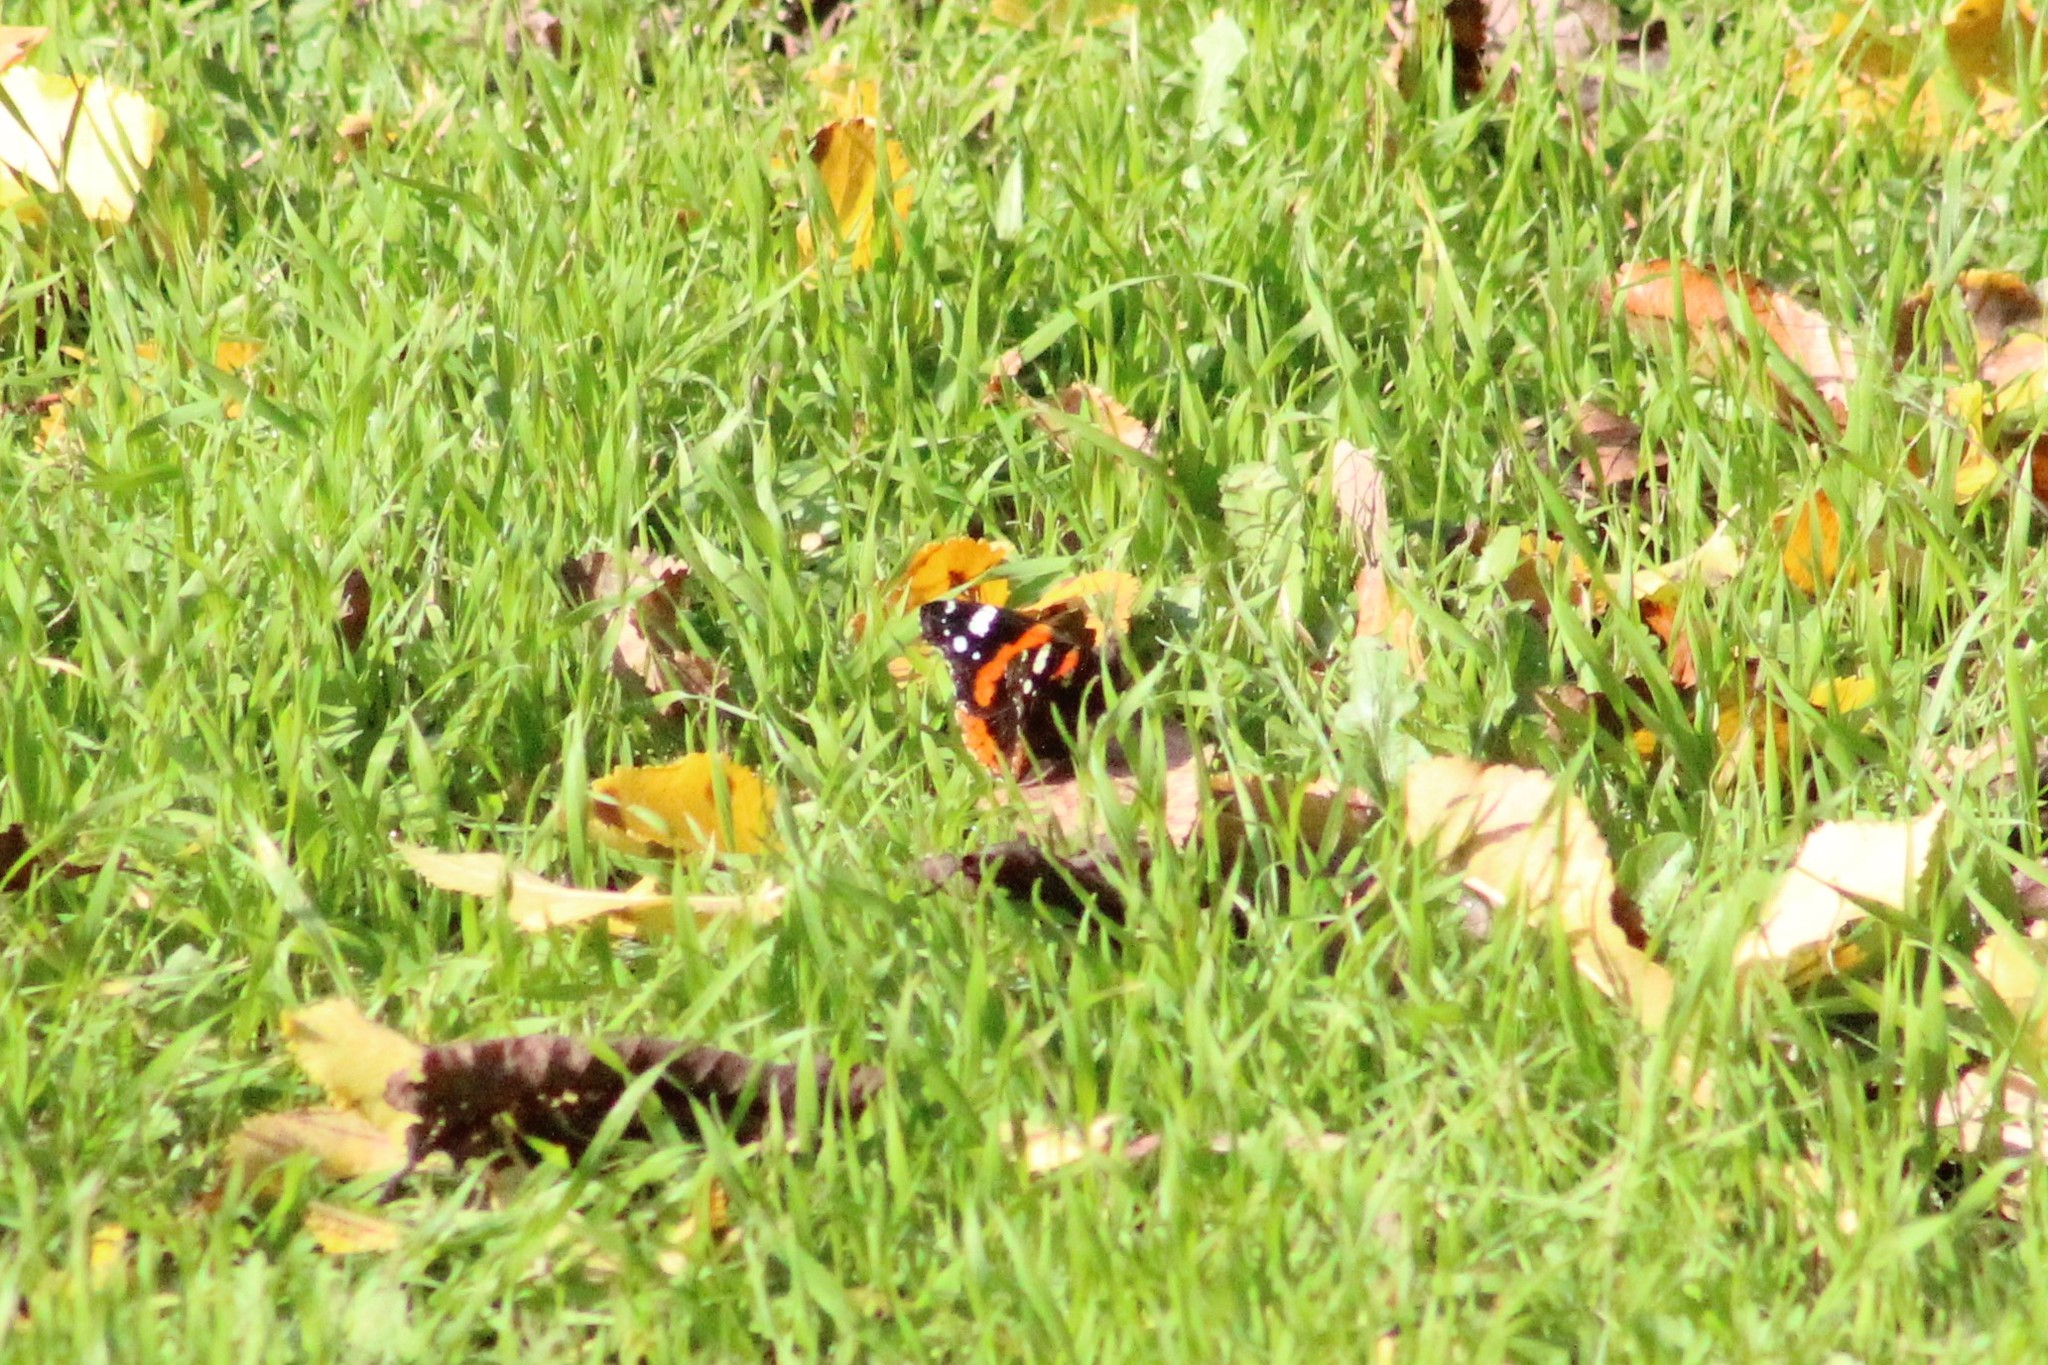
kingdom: Animalia
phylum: Arthropoda
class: Insecta
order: Lepidoptera
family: Nymphalidae
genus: Vanessa
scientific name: Vanessa atalanta
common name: Red admiral
